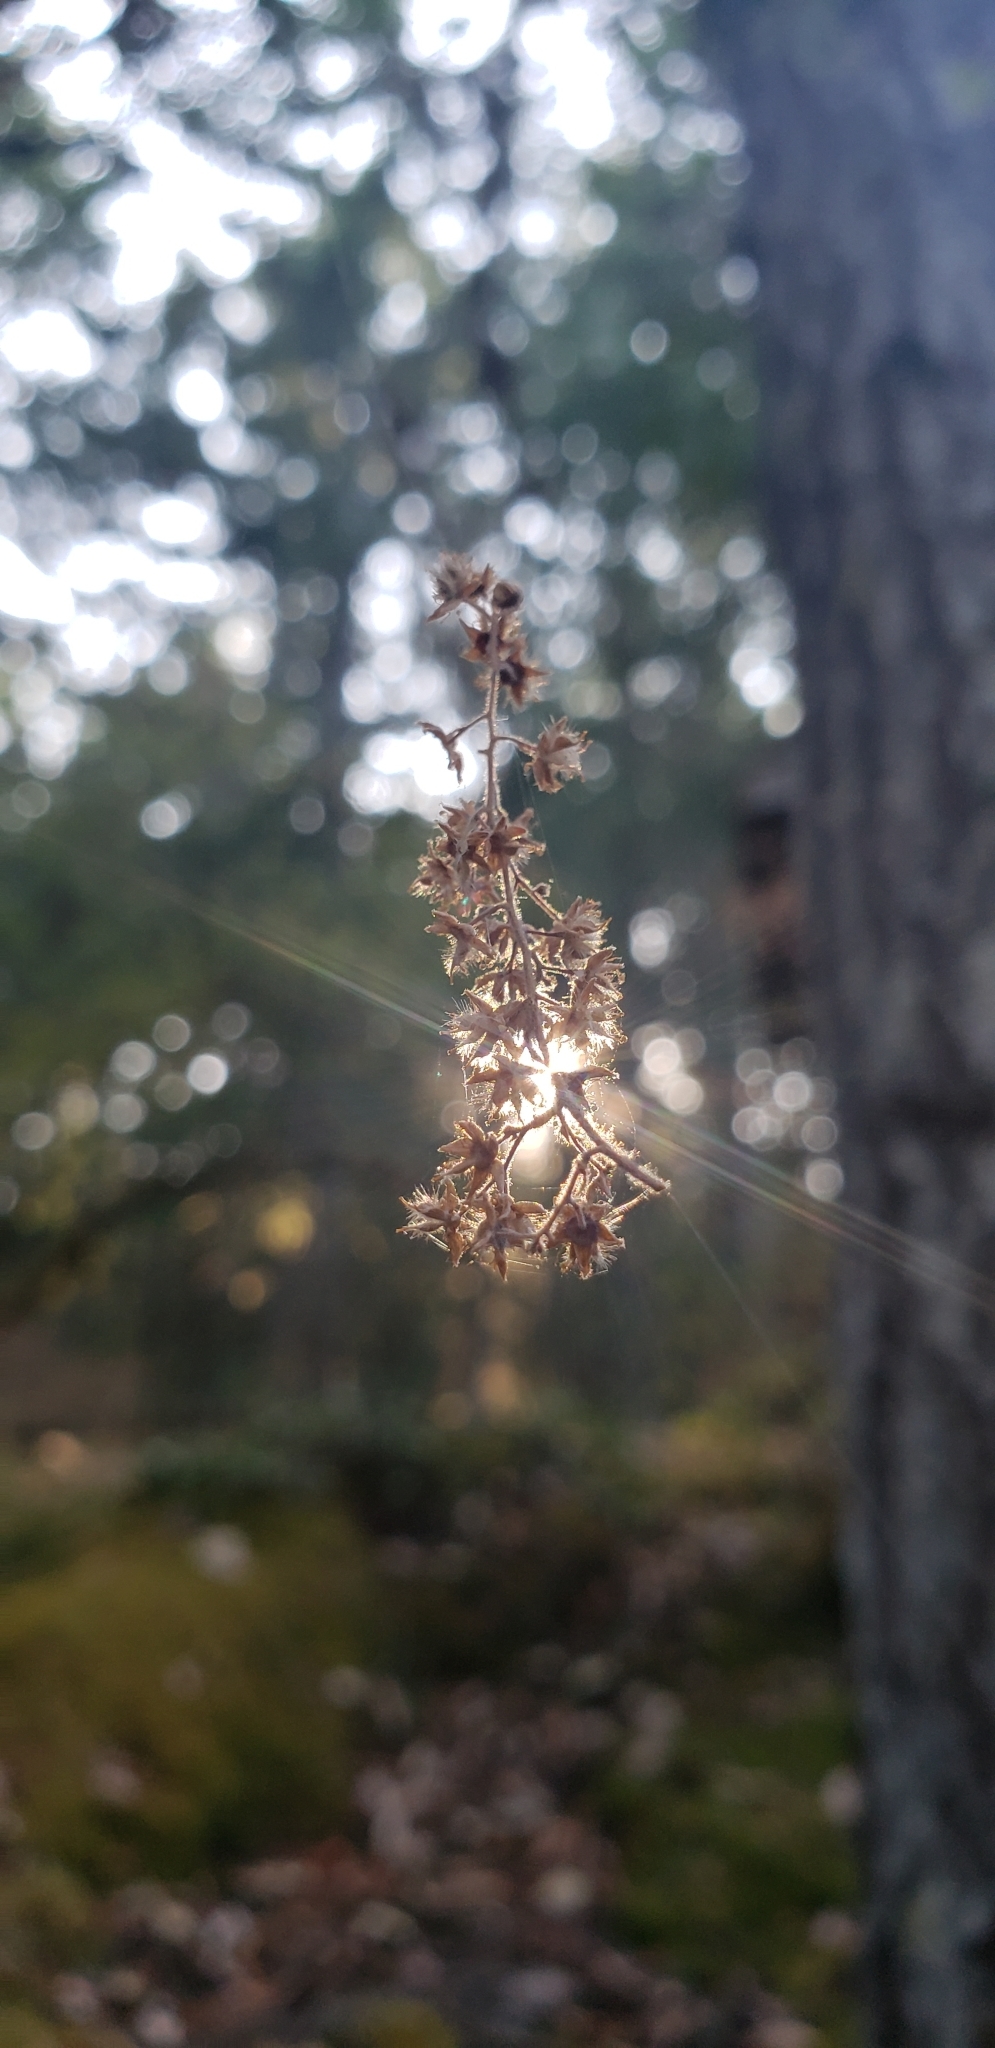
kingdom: Plantae
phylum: Tracheophyta
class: Magnoliopsida
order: Rosales
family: Rosaceae
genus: Holodiscus
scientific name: Holodiscus discolor
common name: Oceanspray
